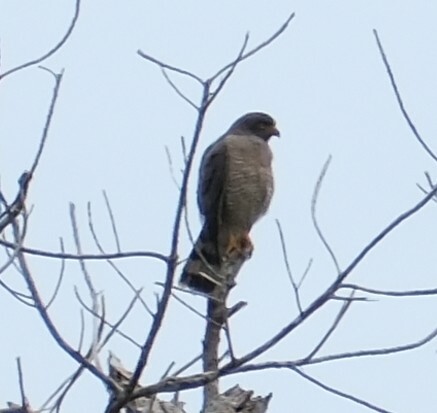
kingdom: Animalia
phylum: Chordata
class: Aves
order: Accipitriformes
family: Accipitridae
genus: Rupornis
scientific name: Rupornis magnirostris
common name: Roadside hawk
